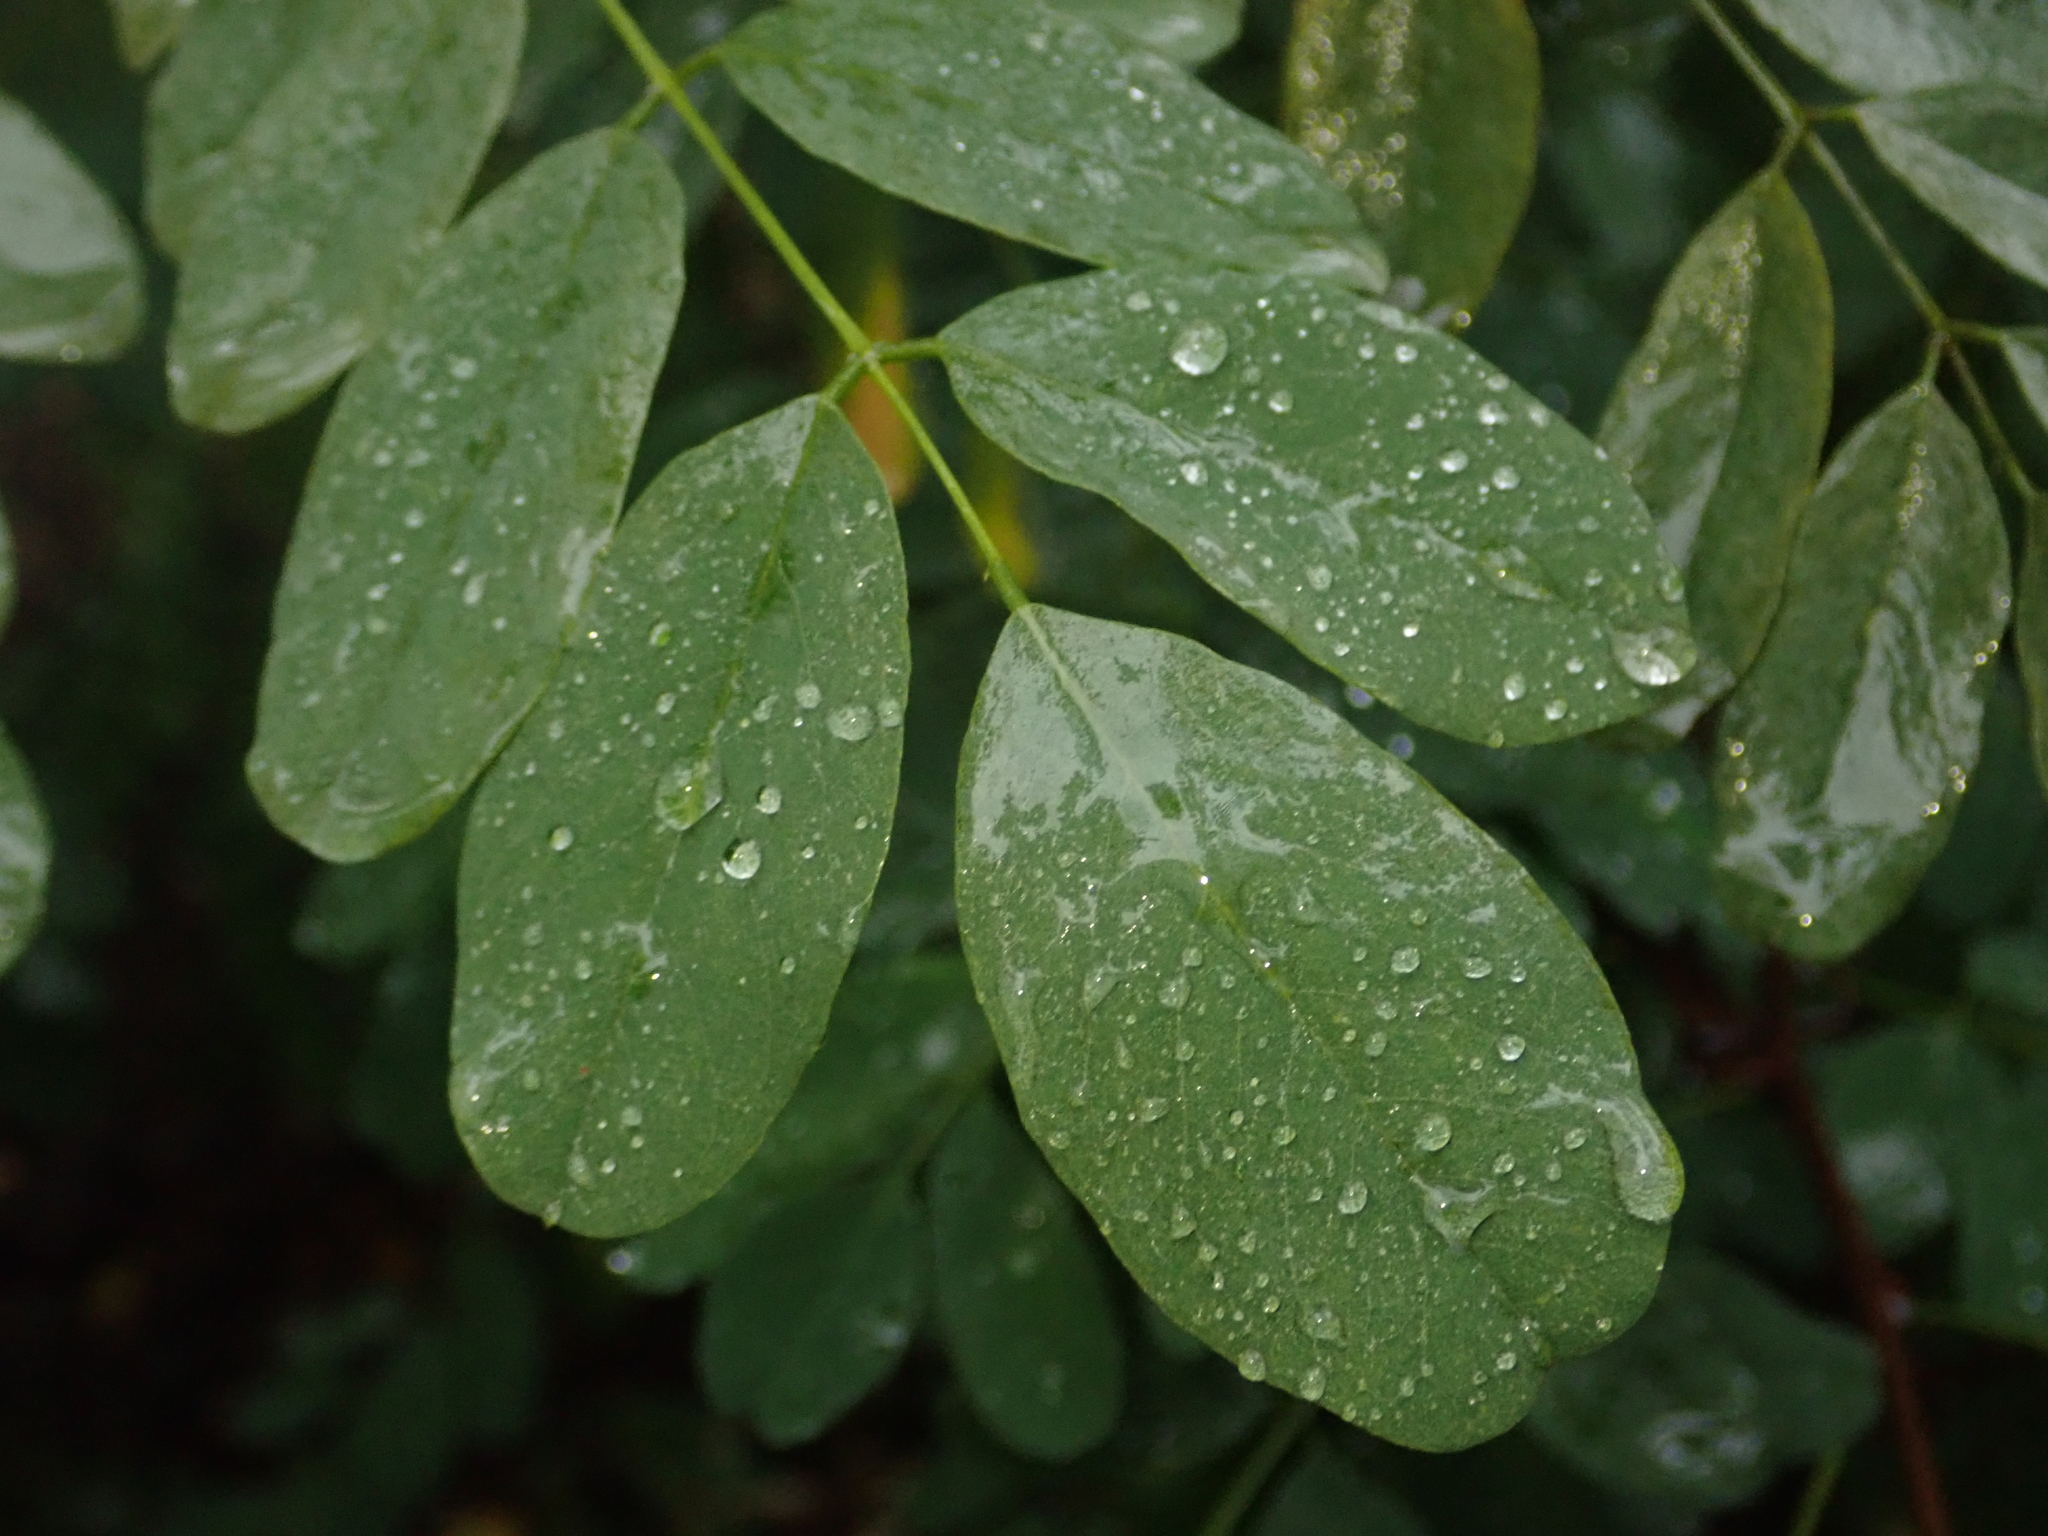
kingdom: Plantae
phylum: Tracheophyta
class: Magnoliopsida
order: Fabales
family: Fabaceae
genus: Robinia
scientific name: Robinia pseudoacacia
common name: Black locust
